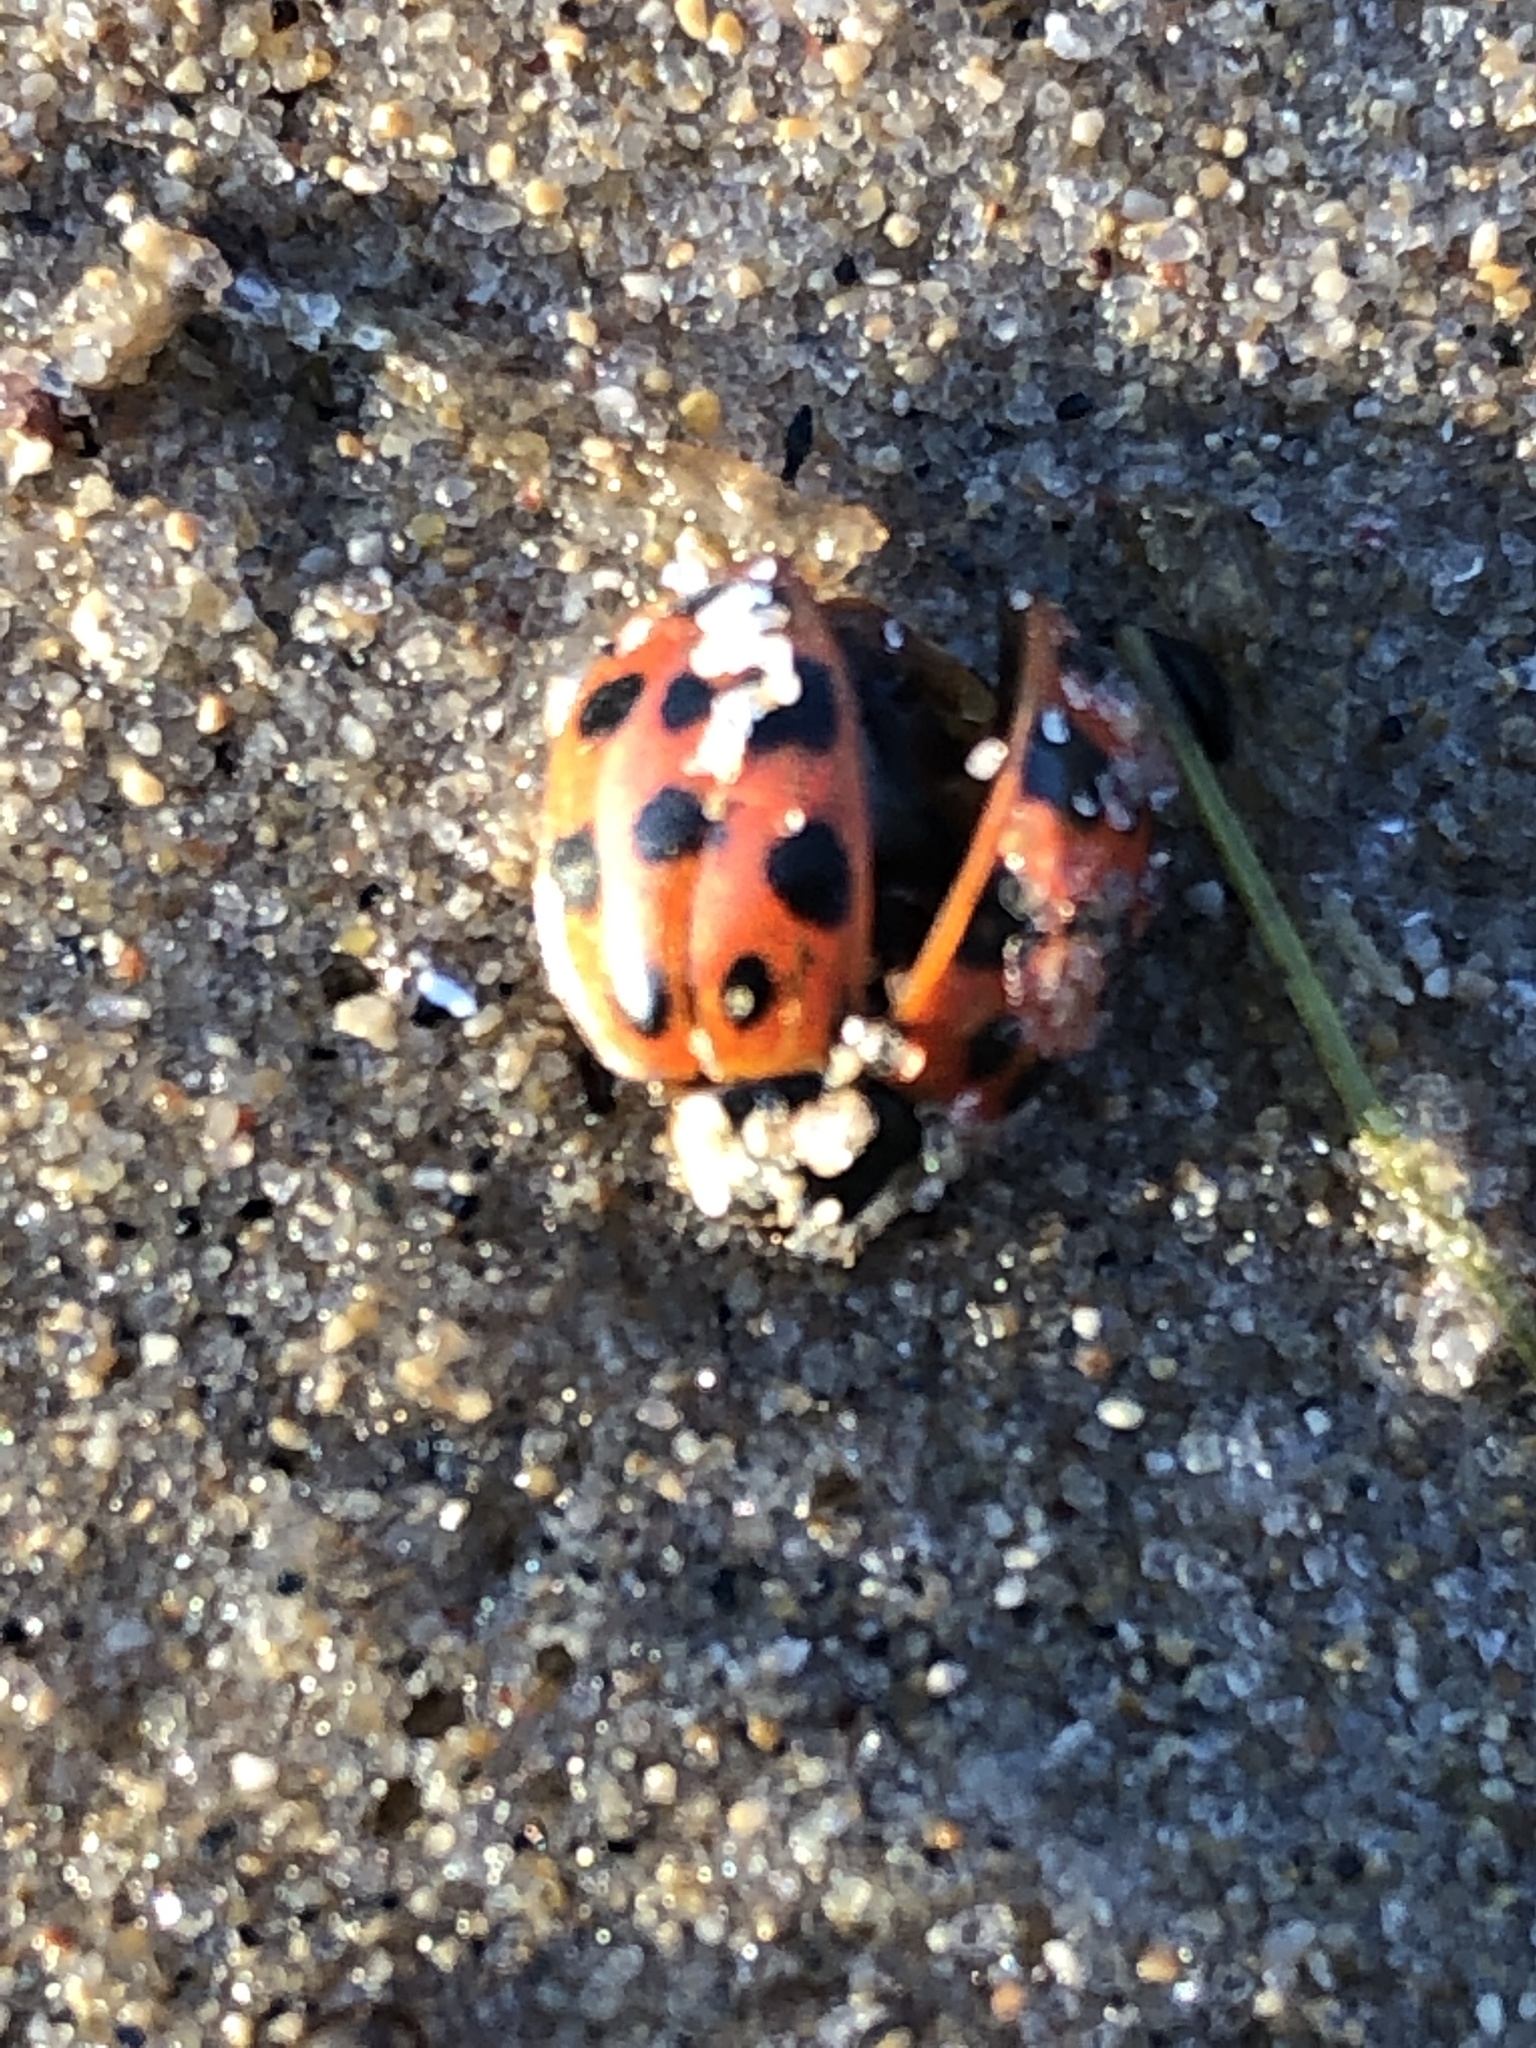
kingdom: Animalia
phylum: Arthropoda
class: Insecta
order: Coleoptera
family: Coccinellidae
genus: Harmonia
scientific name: Harmonia axyridis
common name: Harlequin ladybird
